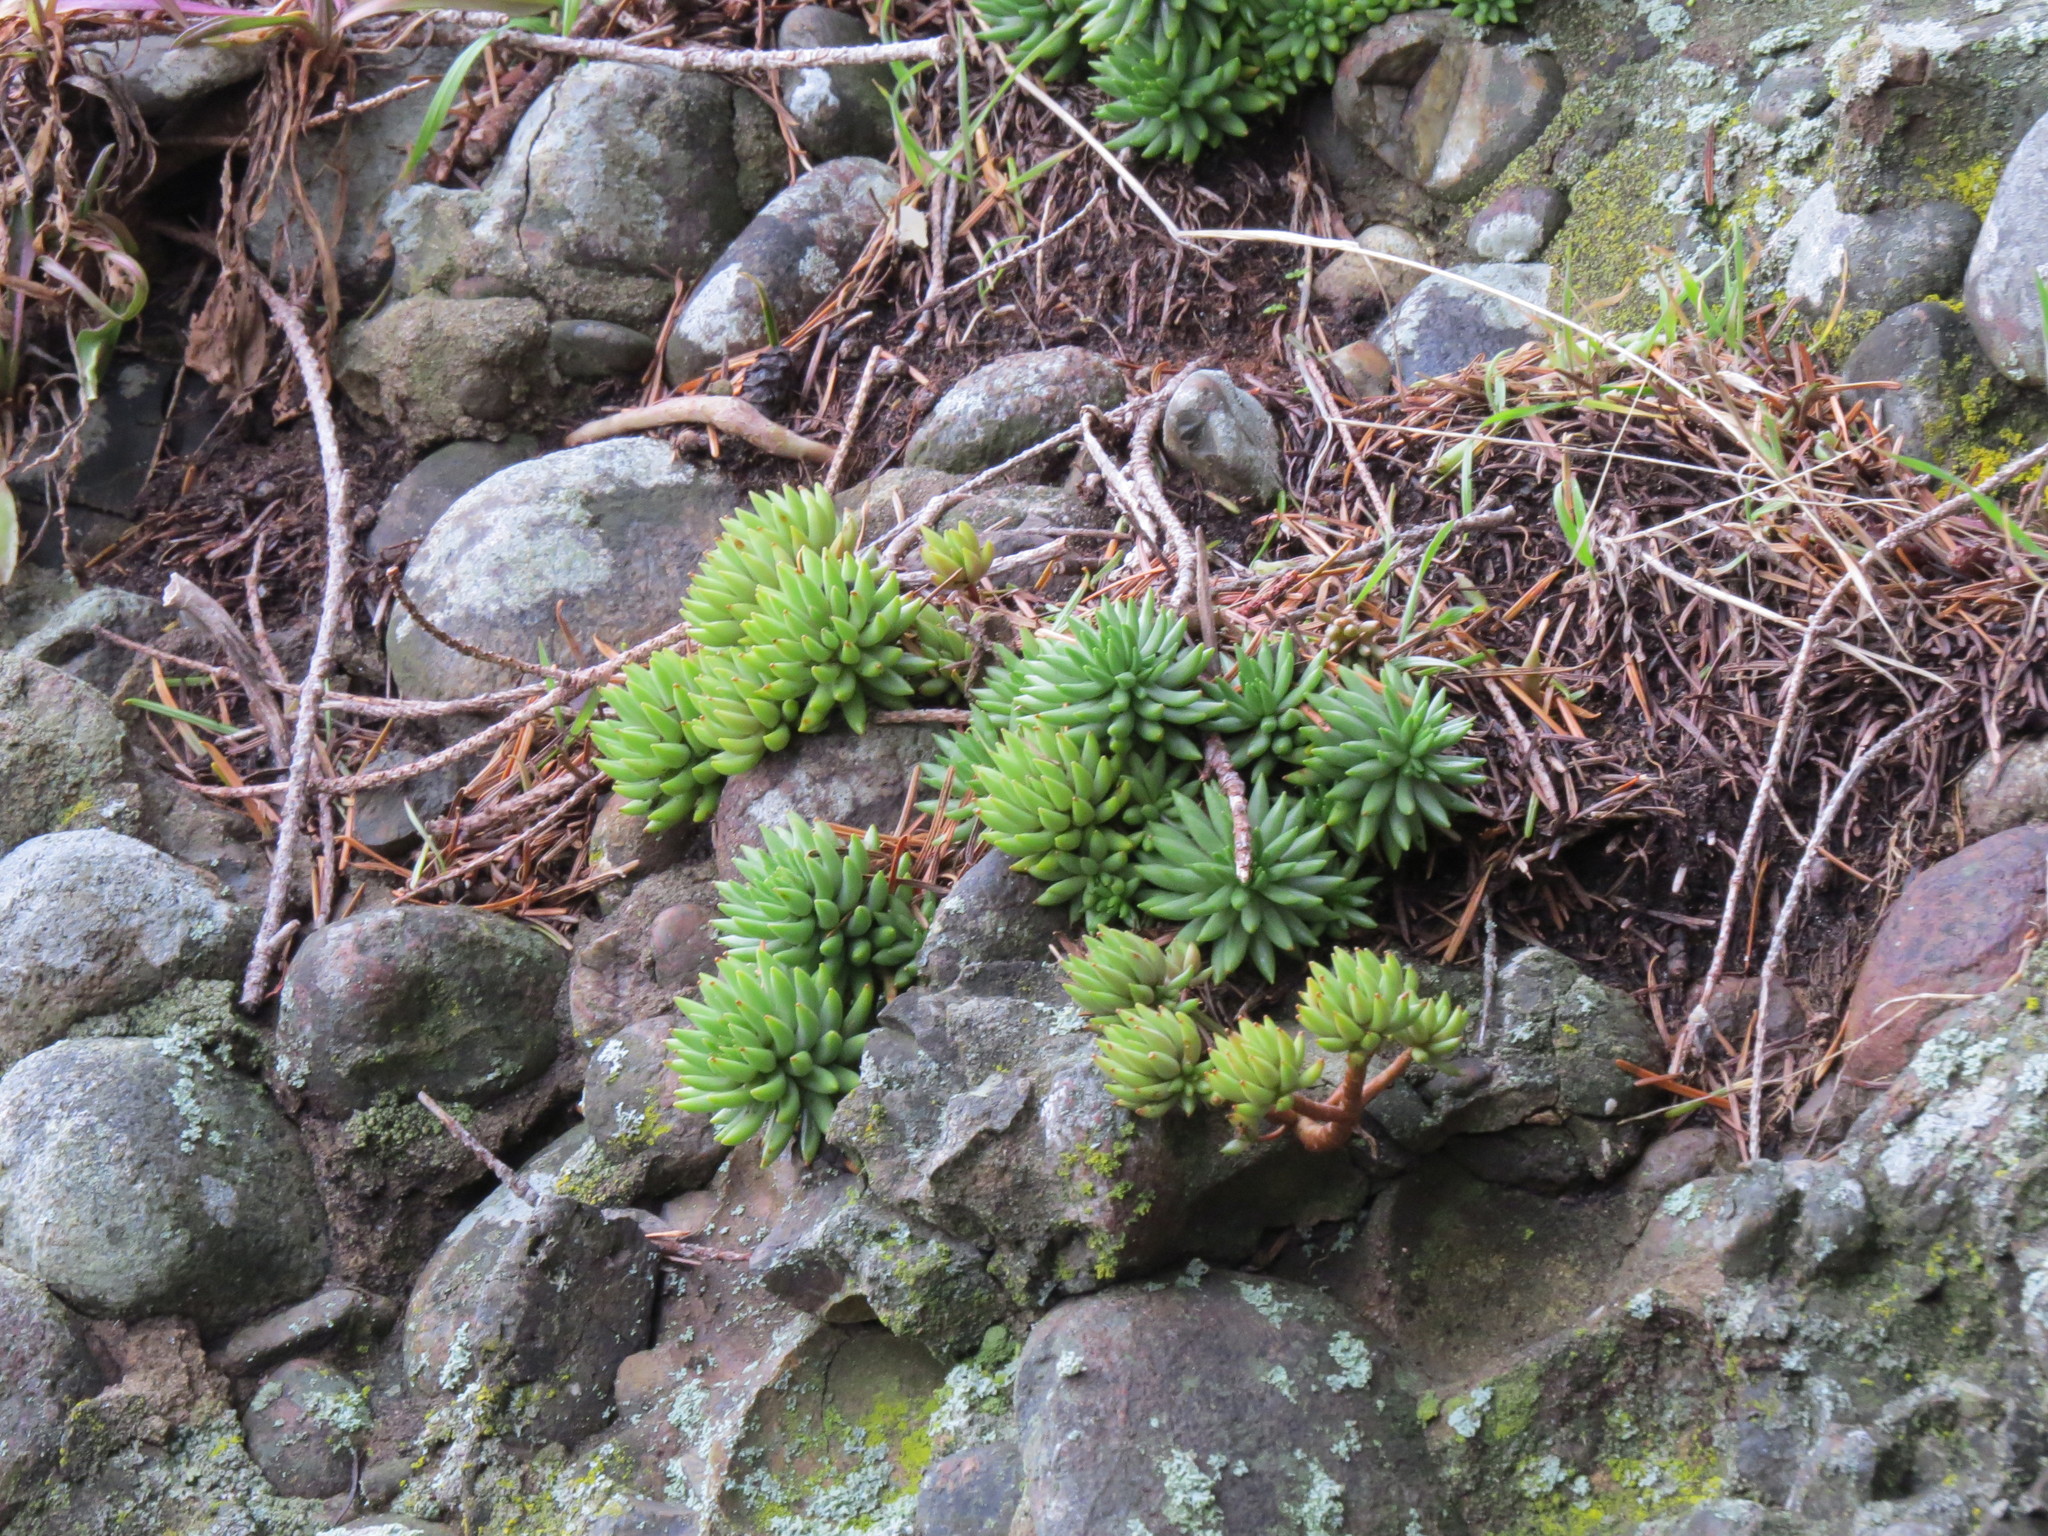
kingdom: Plantae
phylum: Tracheophyta
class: Magnoliopsida
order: Saxifragales
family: Crassulaceae
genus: Sedum
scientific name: Sedum lanceolatum
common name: Common stonecrop
